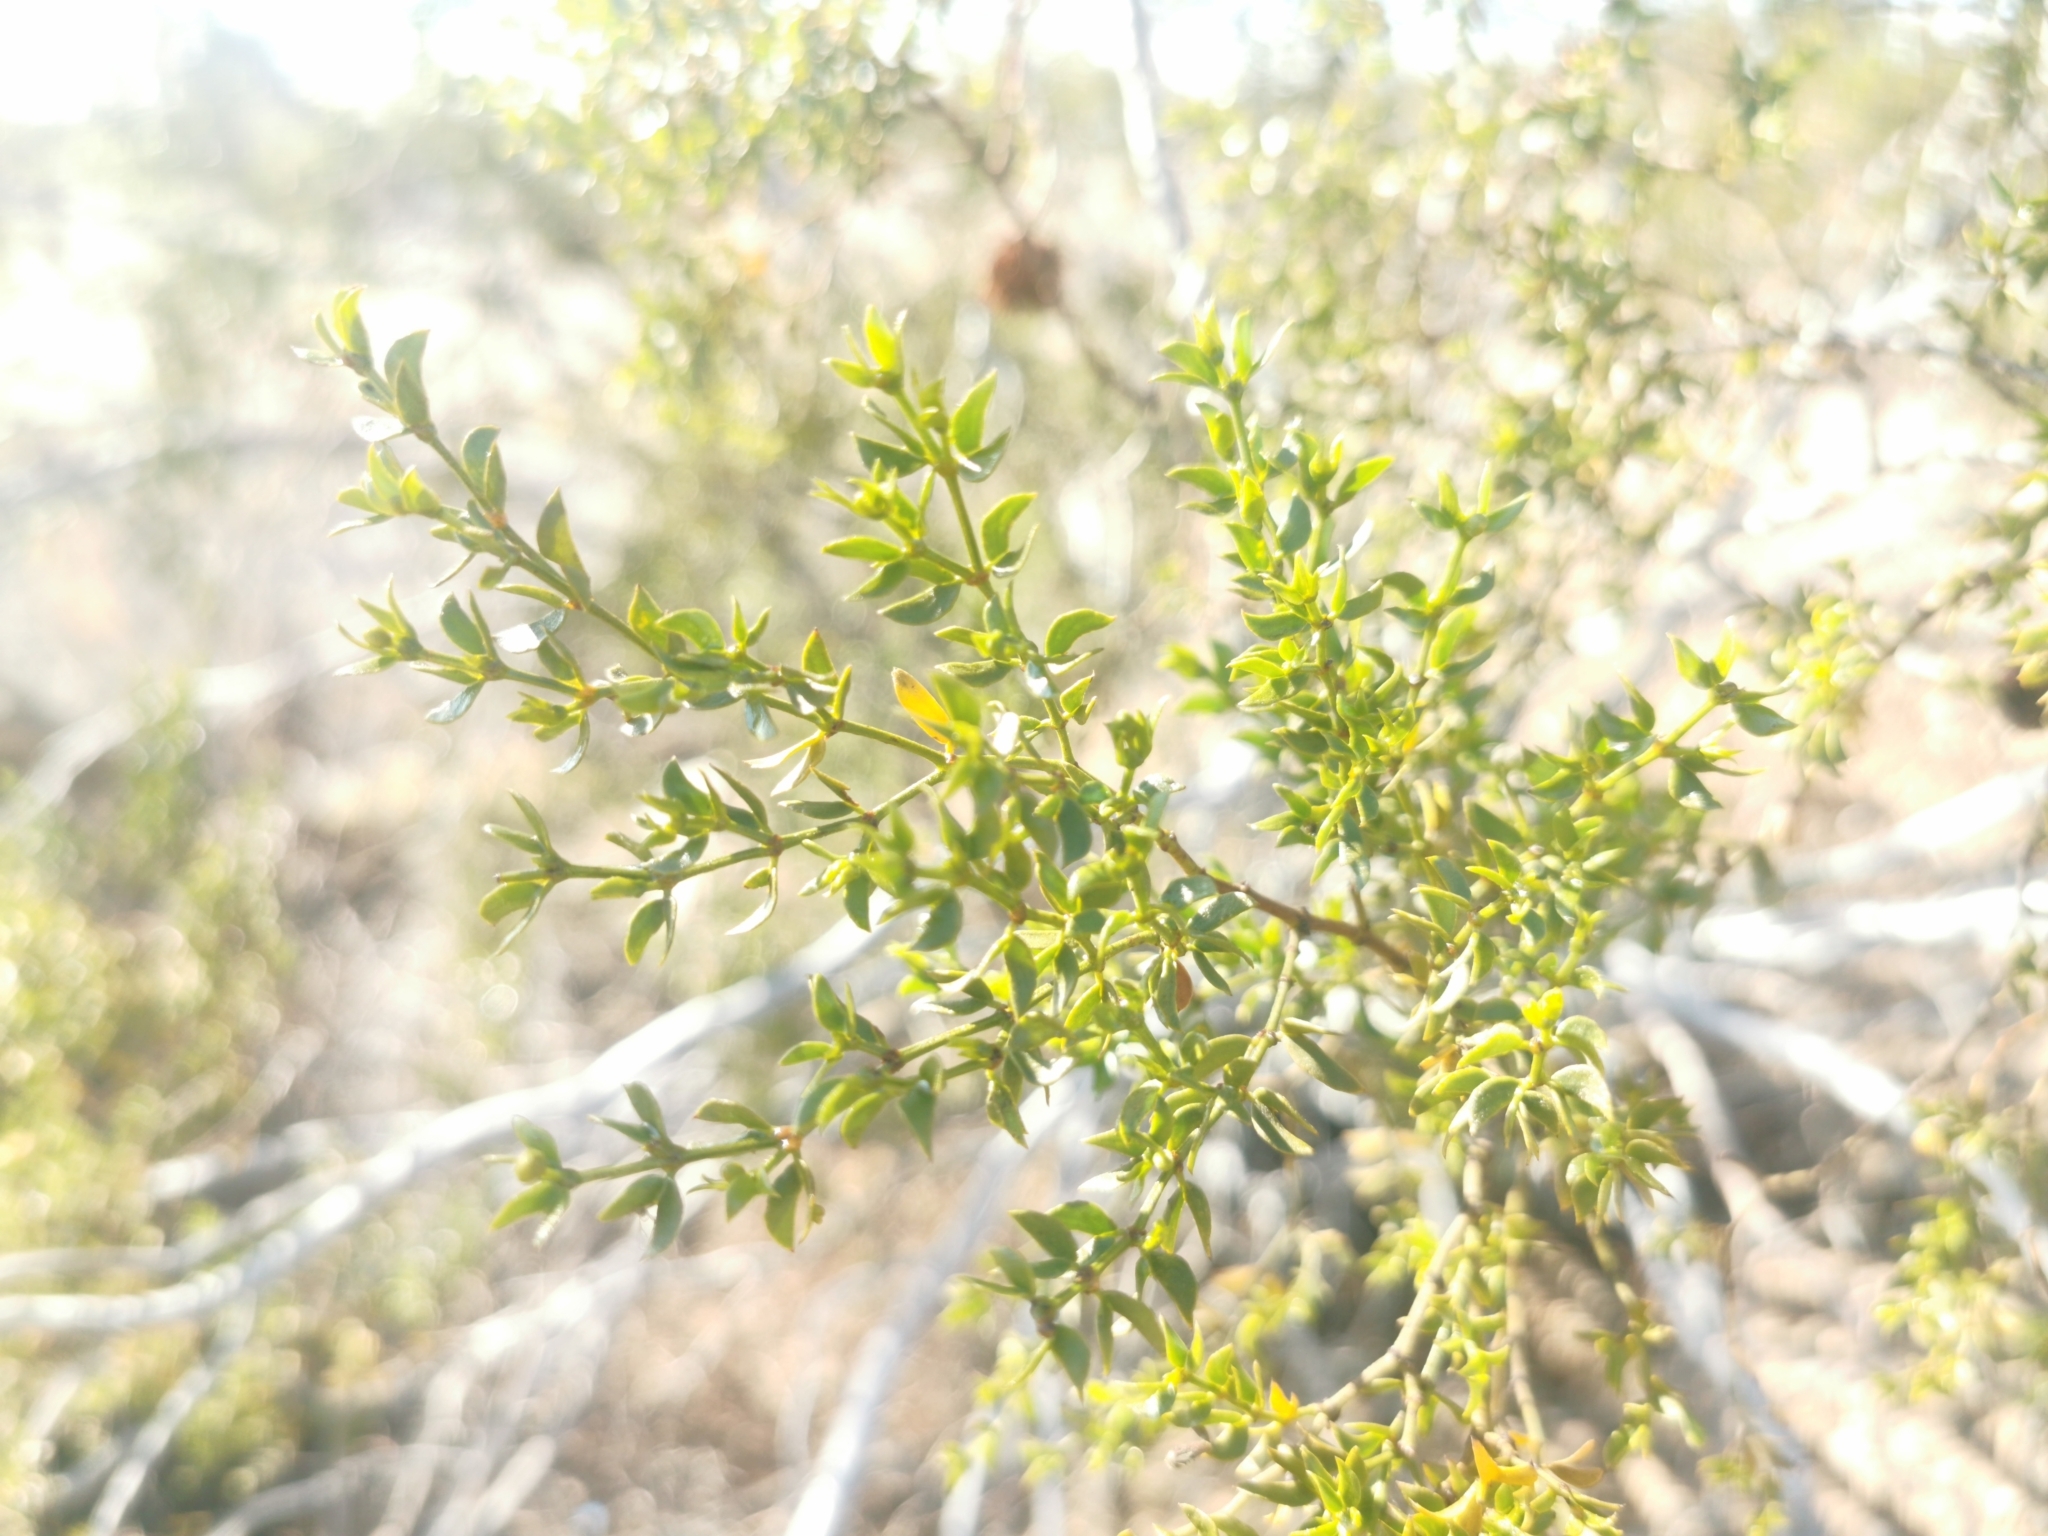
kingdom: Plantae
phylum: Tracheophyta
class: Magnoliopsida
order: Zygophyllales
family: Zygophyllaceae
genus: Larrea
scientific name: Larrea tridentata
